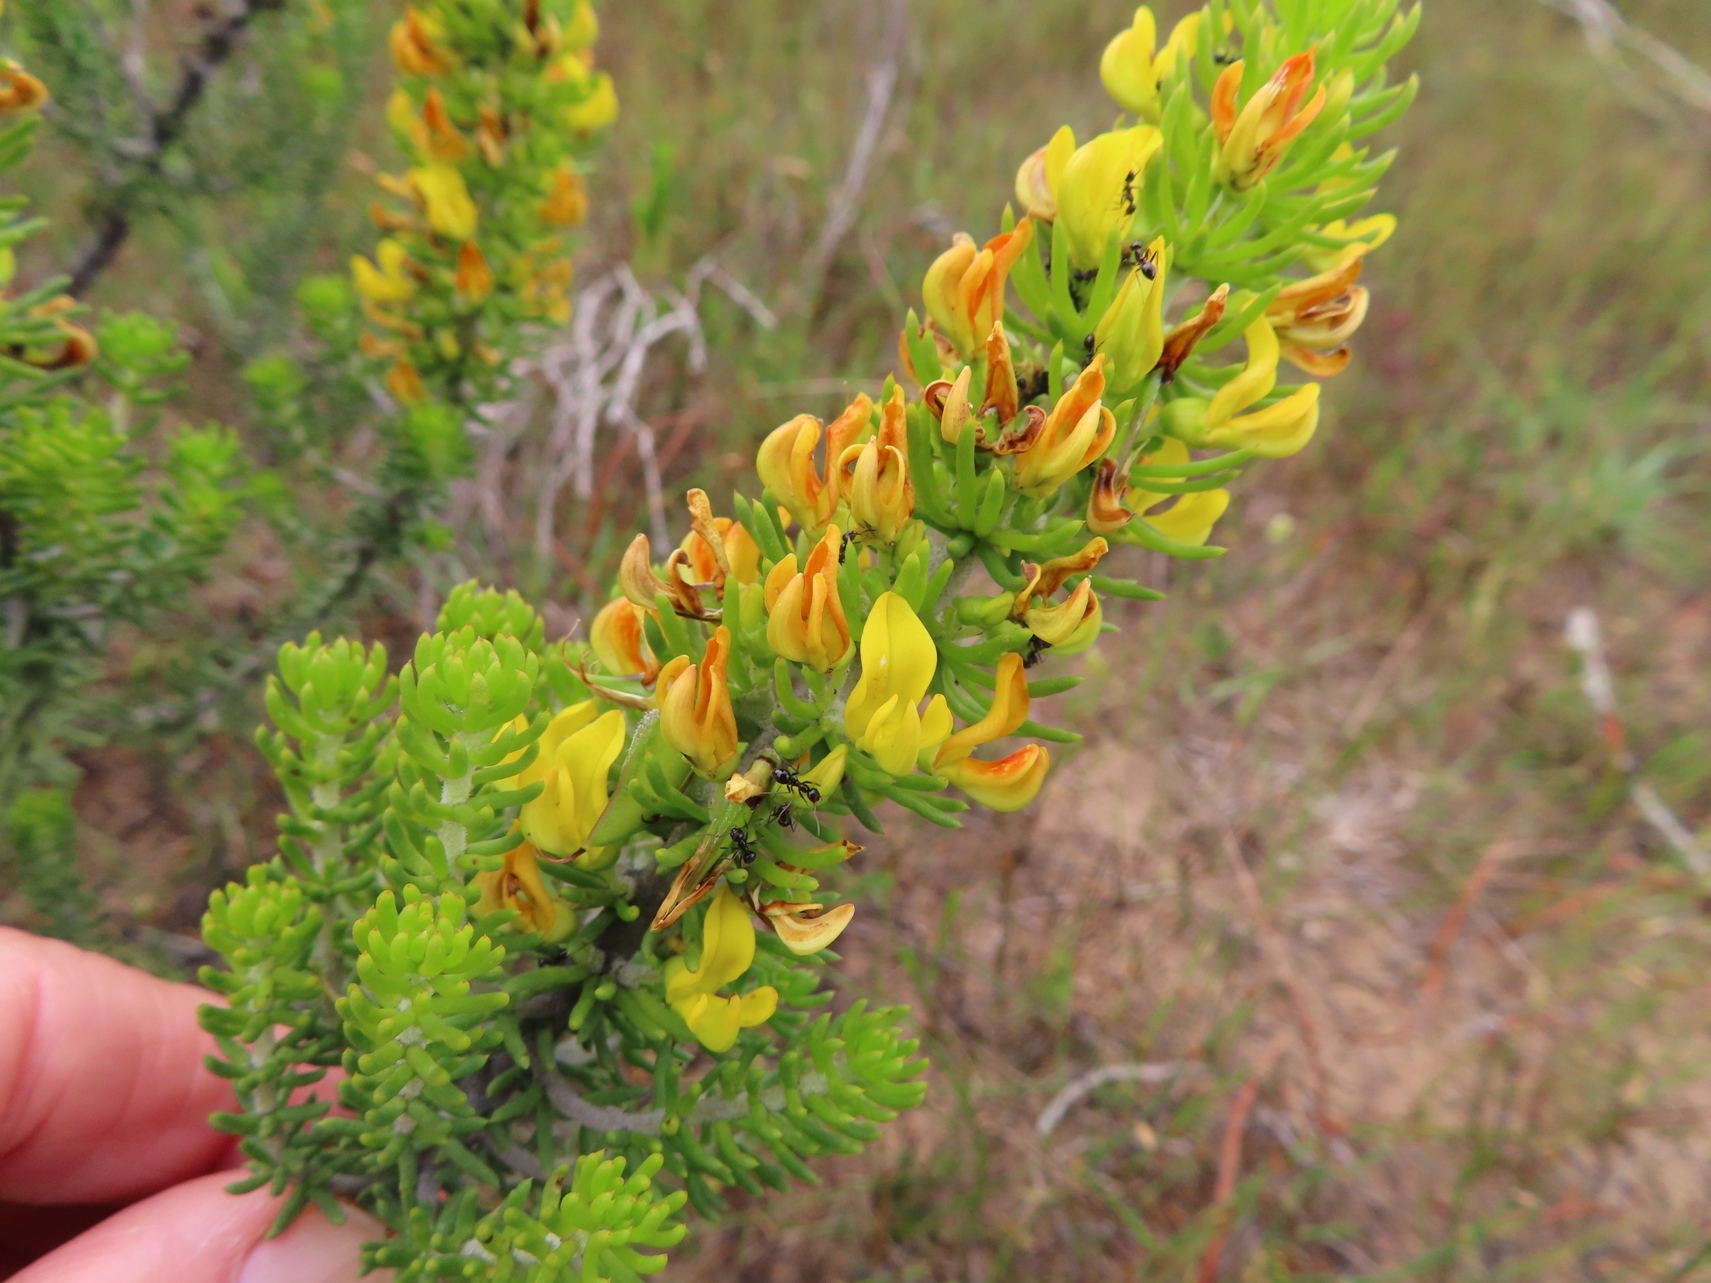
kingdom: Plantae
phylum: Tracheophyta
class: Magnoliopsida
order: Fabales
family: Fabaceae
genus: Aspalathus
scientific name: Aspalathus pinguis
